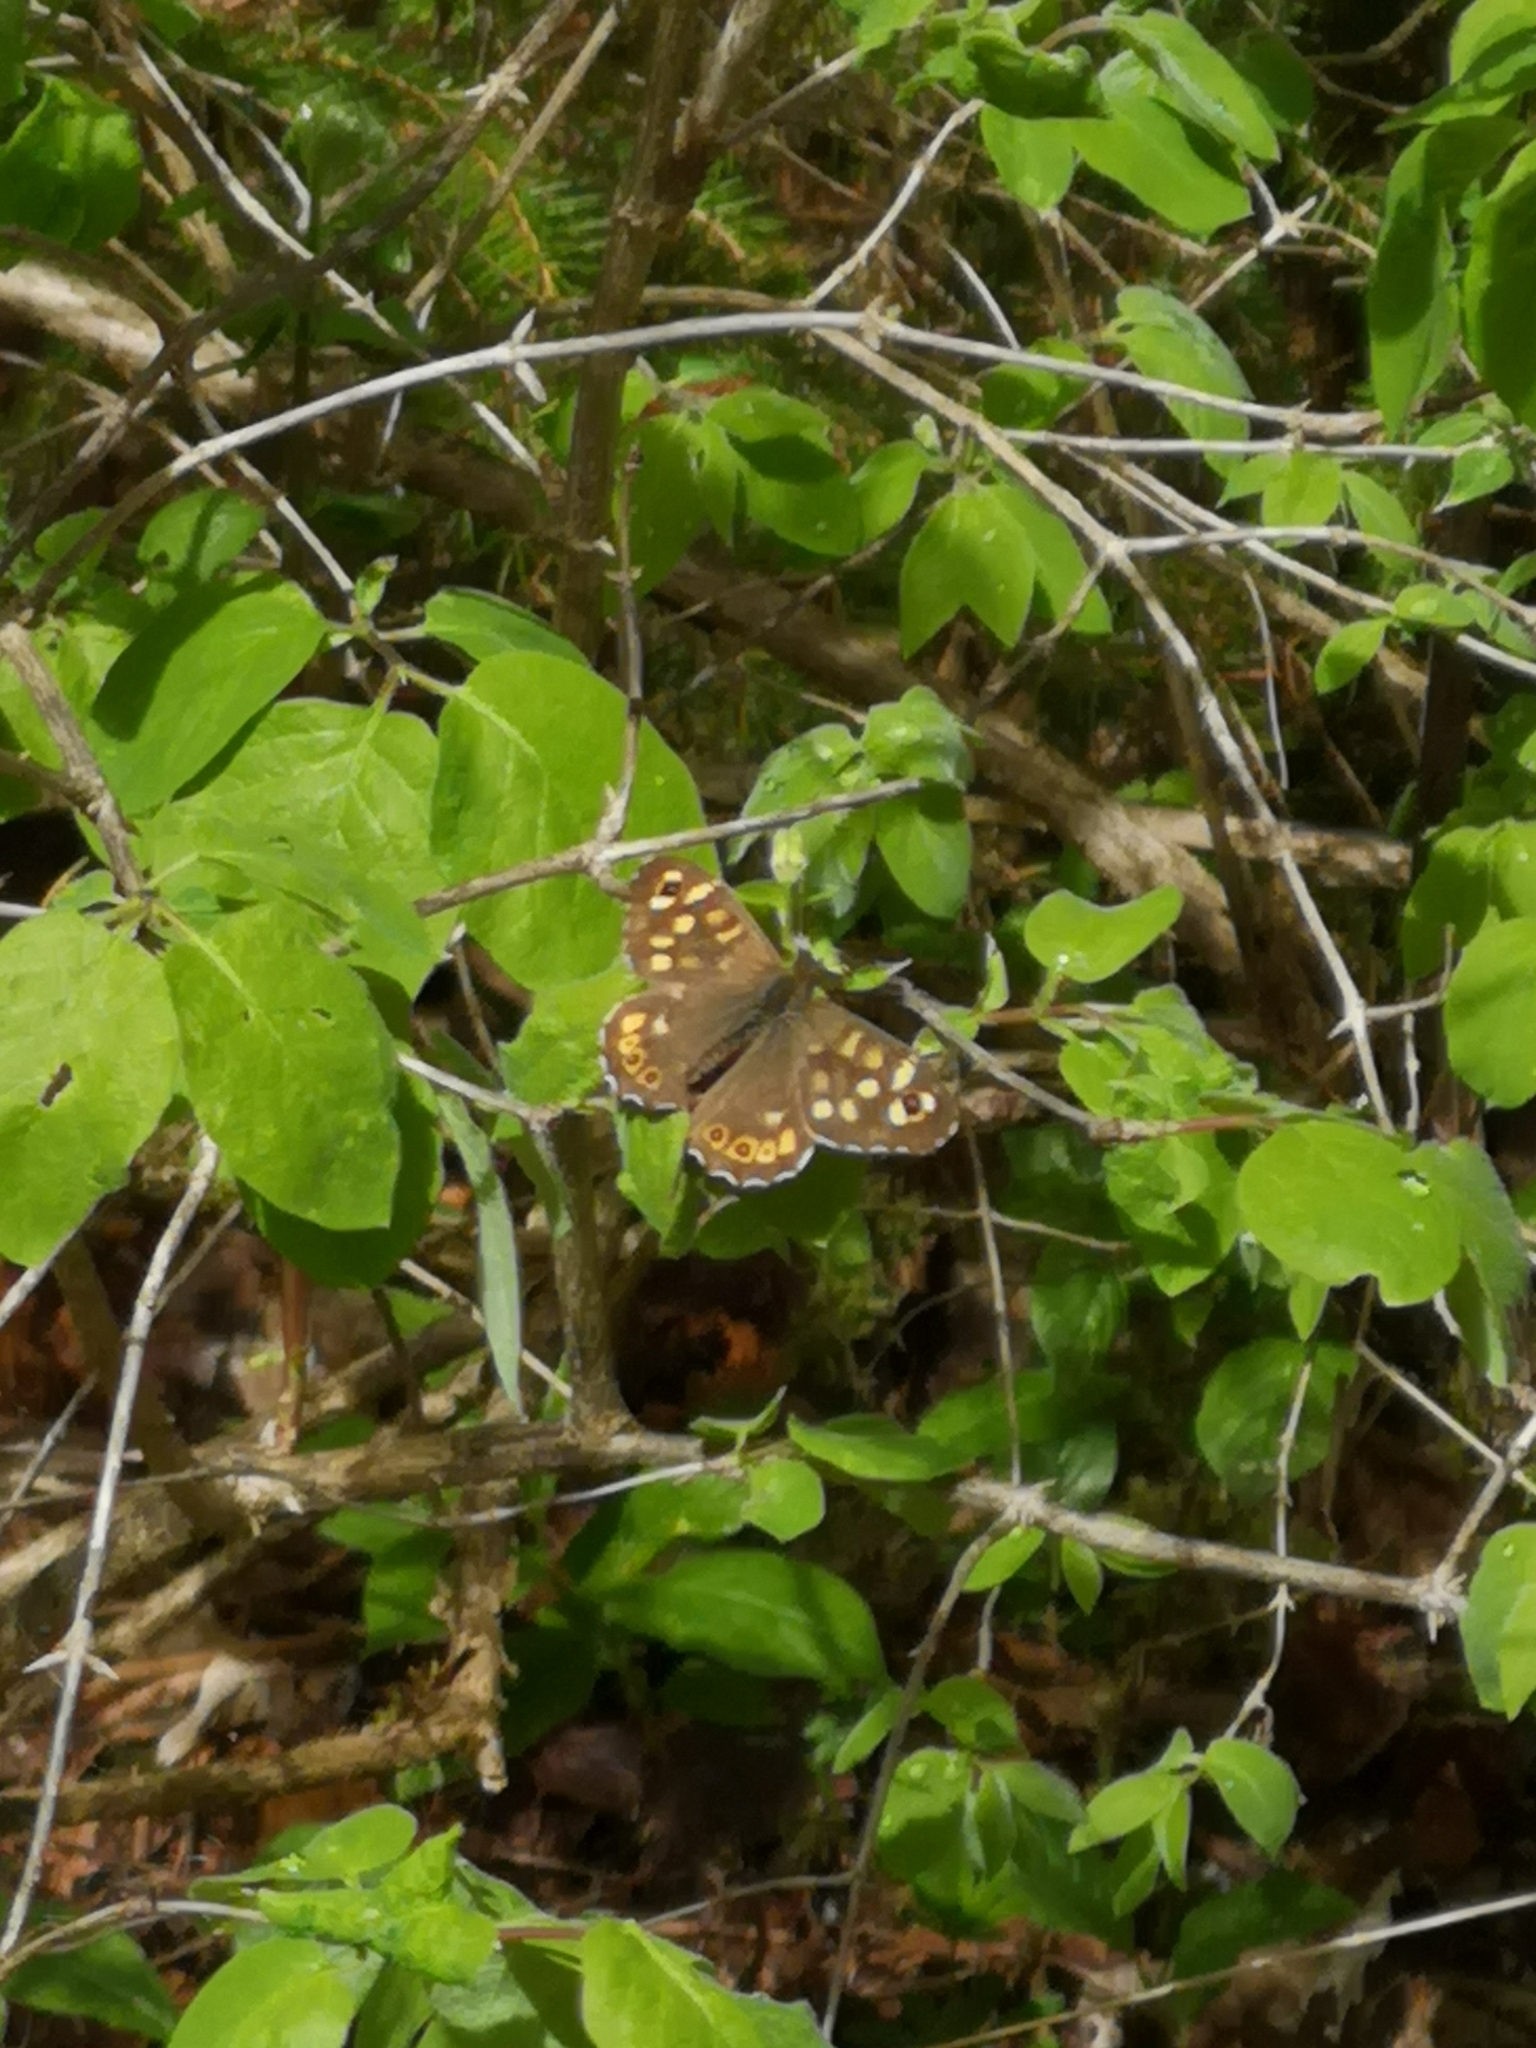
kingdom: Animalia
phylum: Arthropoda
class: Insecta
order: Lepidoptera
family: Nymphalidae
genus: Pararge
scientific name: Pararge aegeria
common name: Speckled wood
